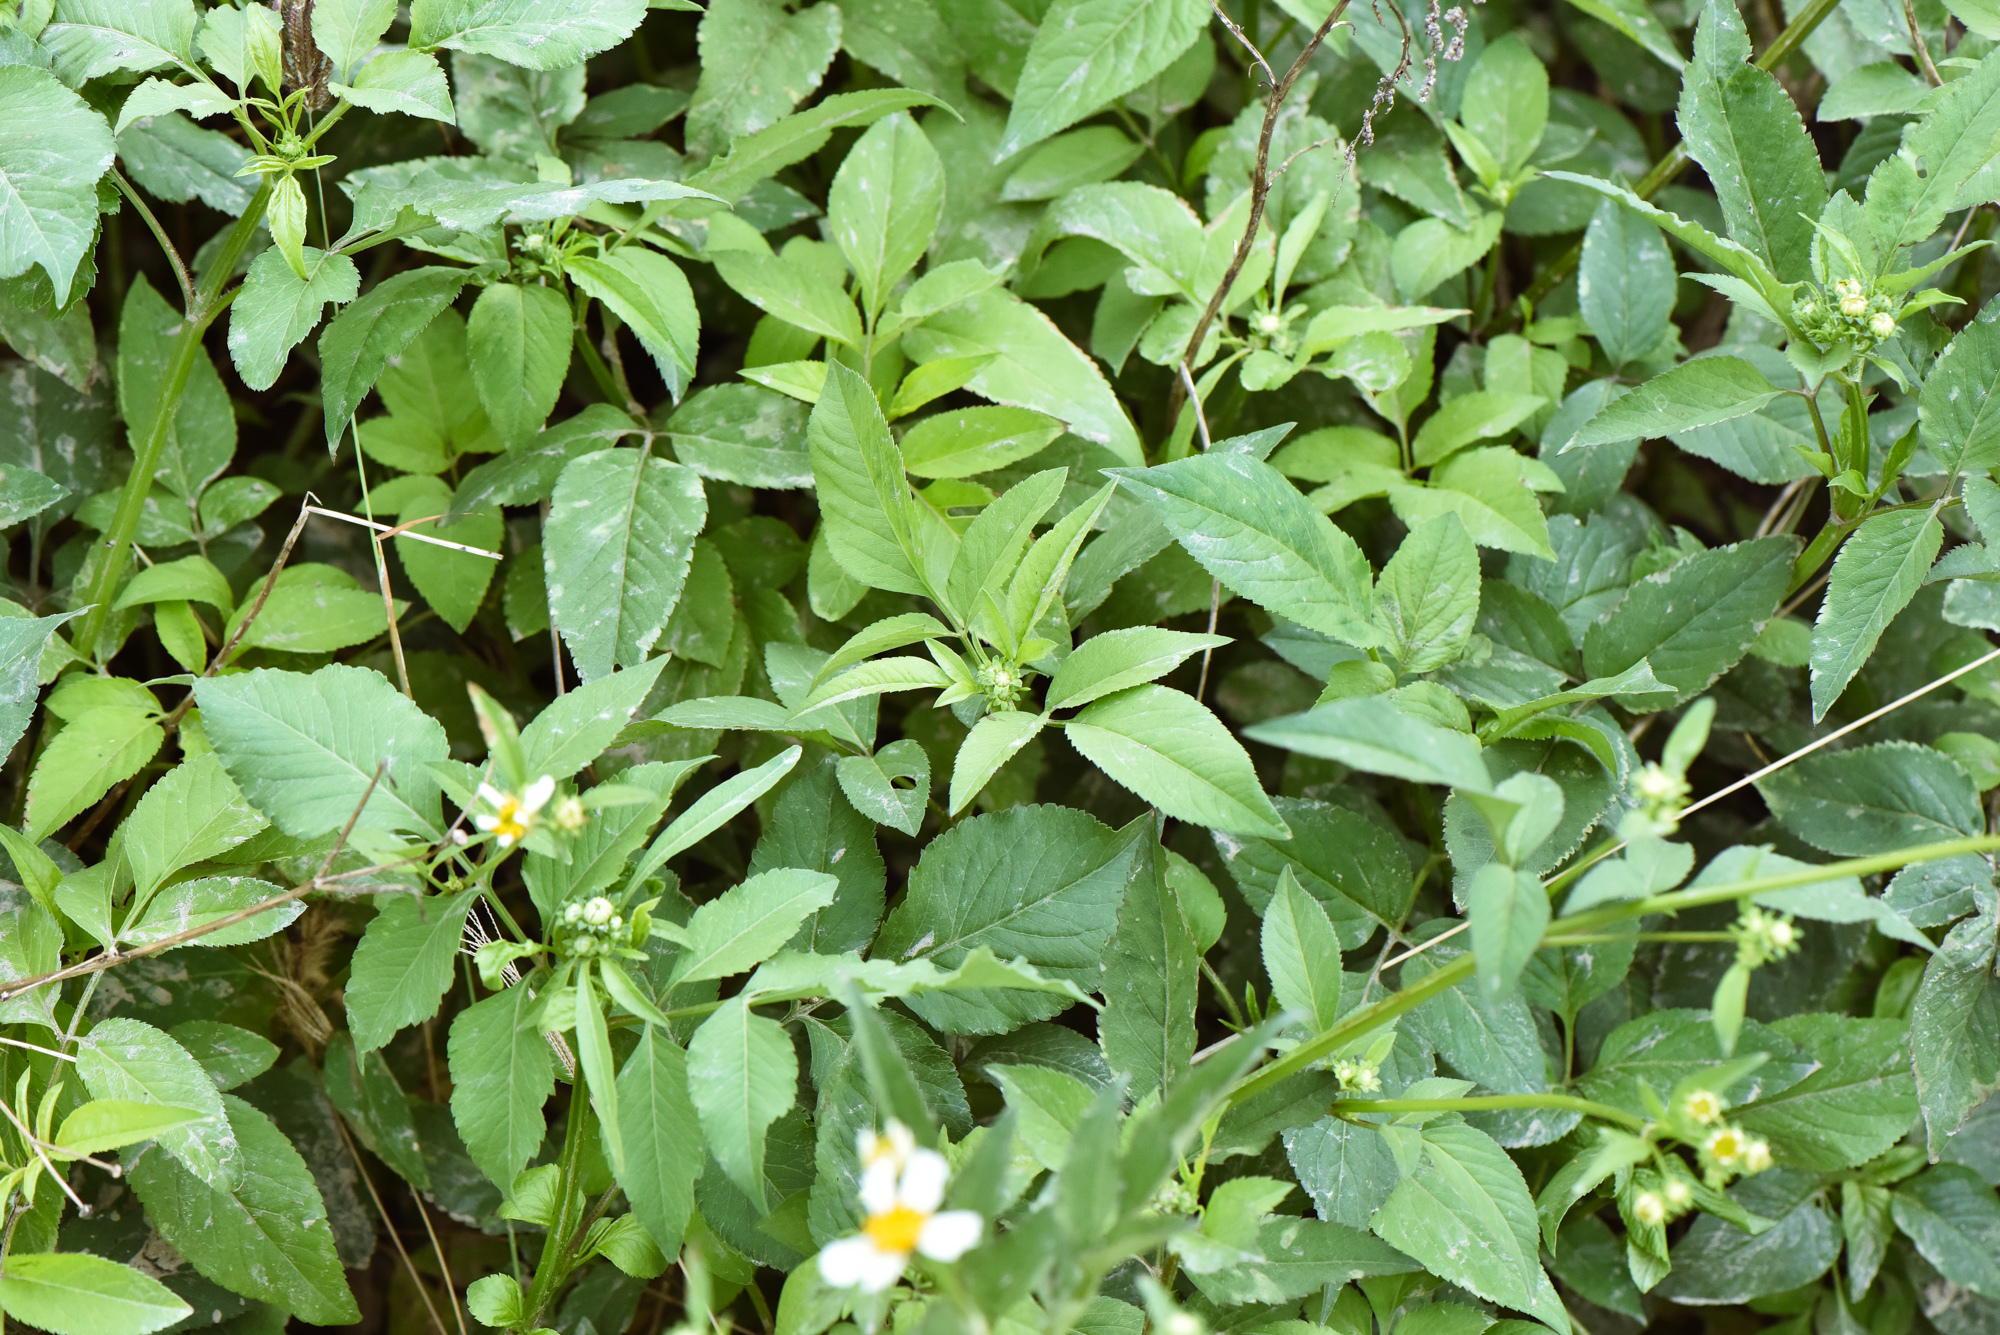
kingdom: Plantae
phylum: Tracheophyta
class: Magnoliopsida
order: Asterales
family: Asteraceae
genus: Bidens
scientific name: Bidens alba
